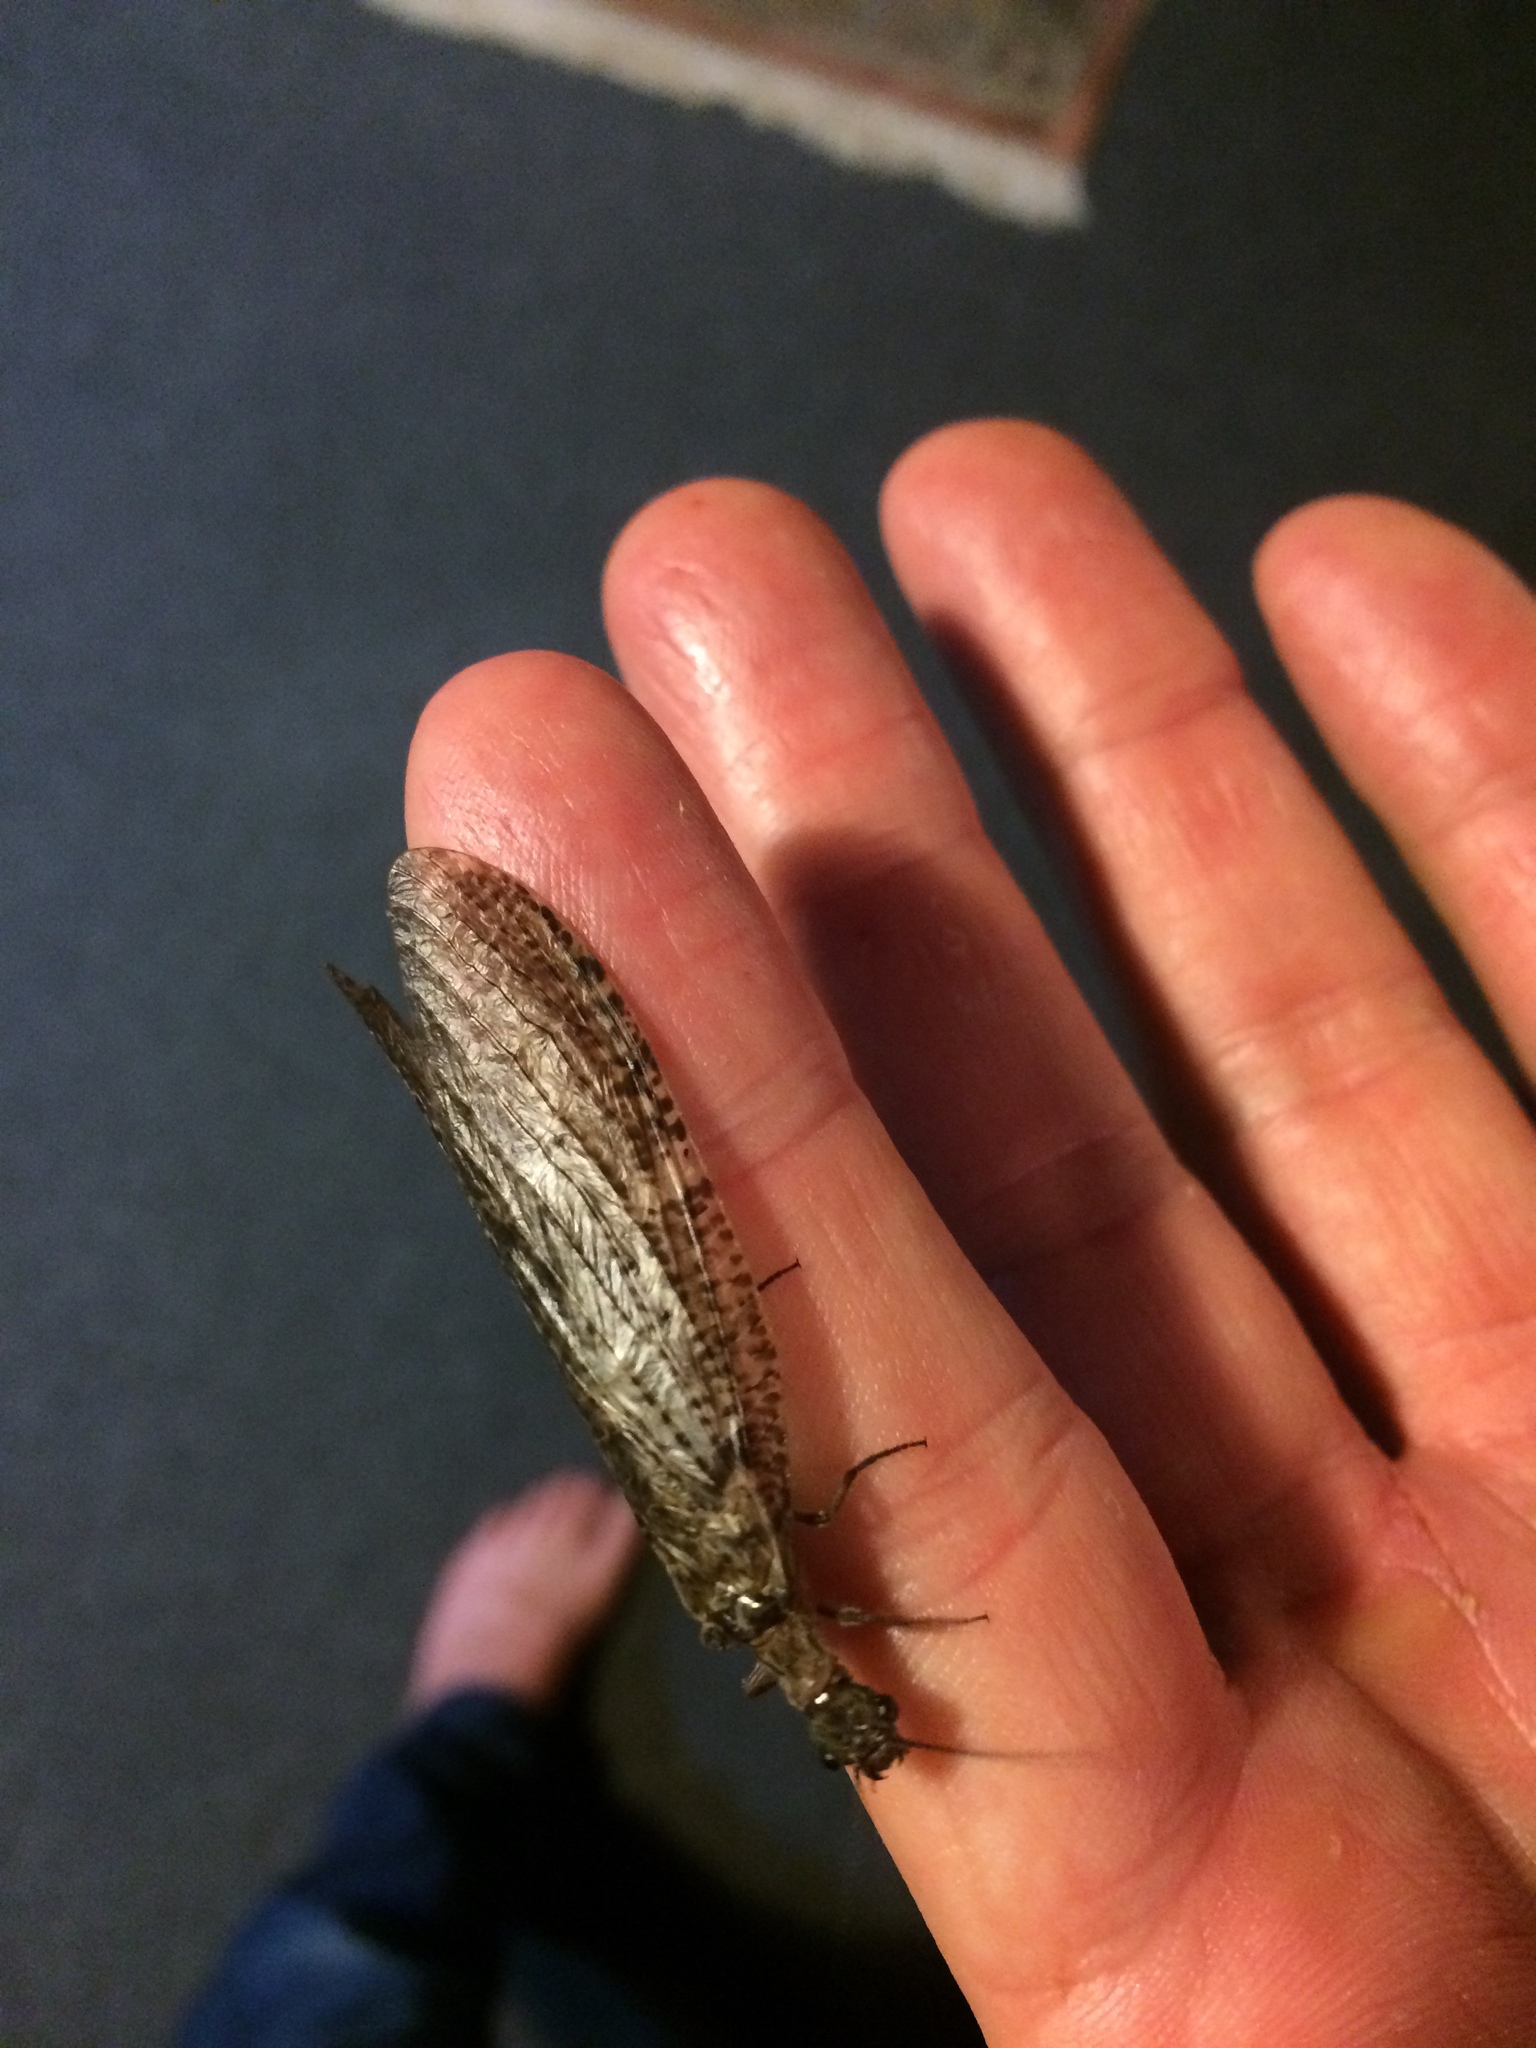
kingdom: Animalia
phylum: Arthropoda
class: Insecta
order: Megaloptera
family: Corydalidae
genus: Archichauliodes
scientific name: Archichauliodes diversus
